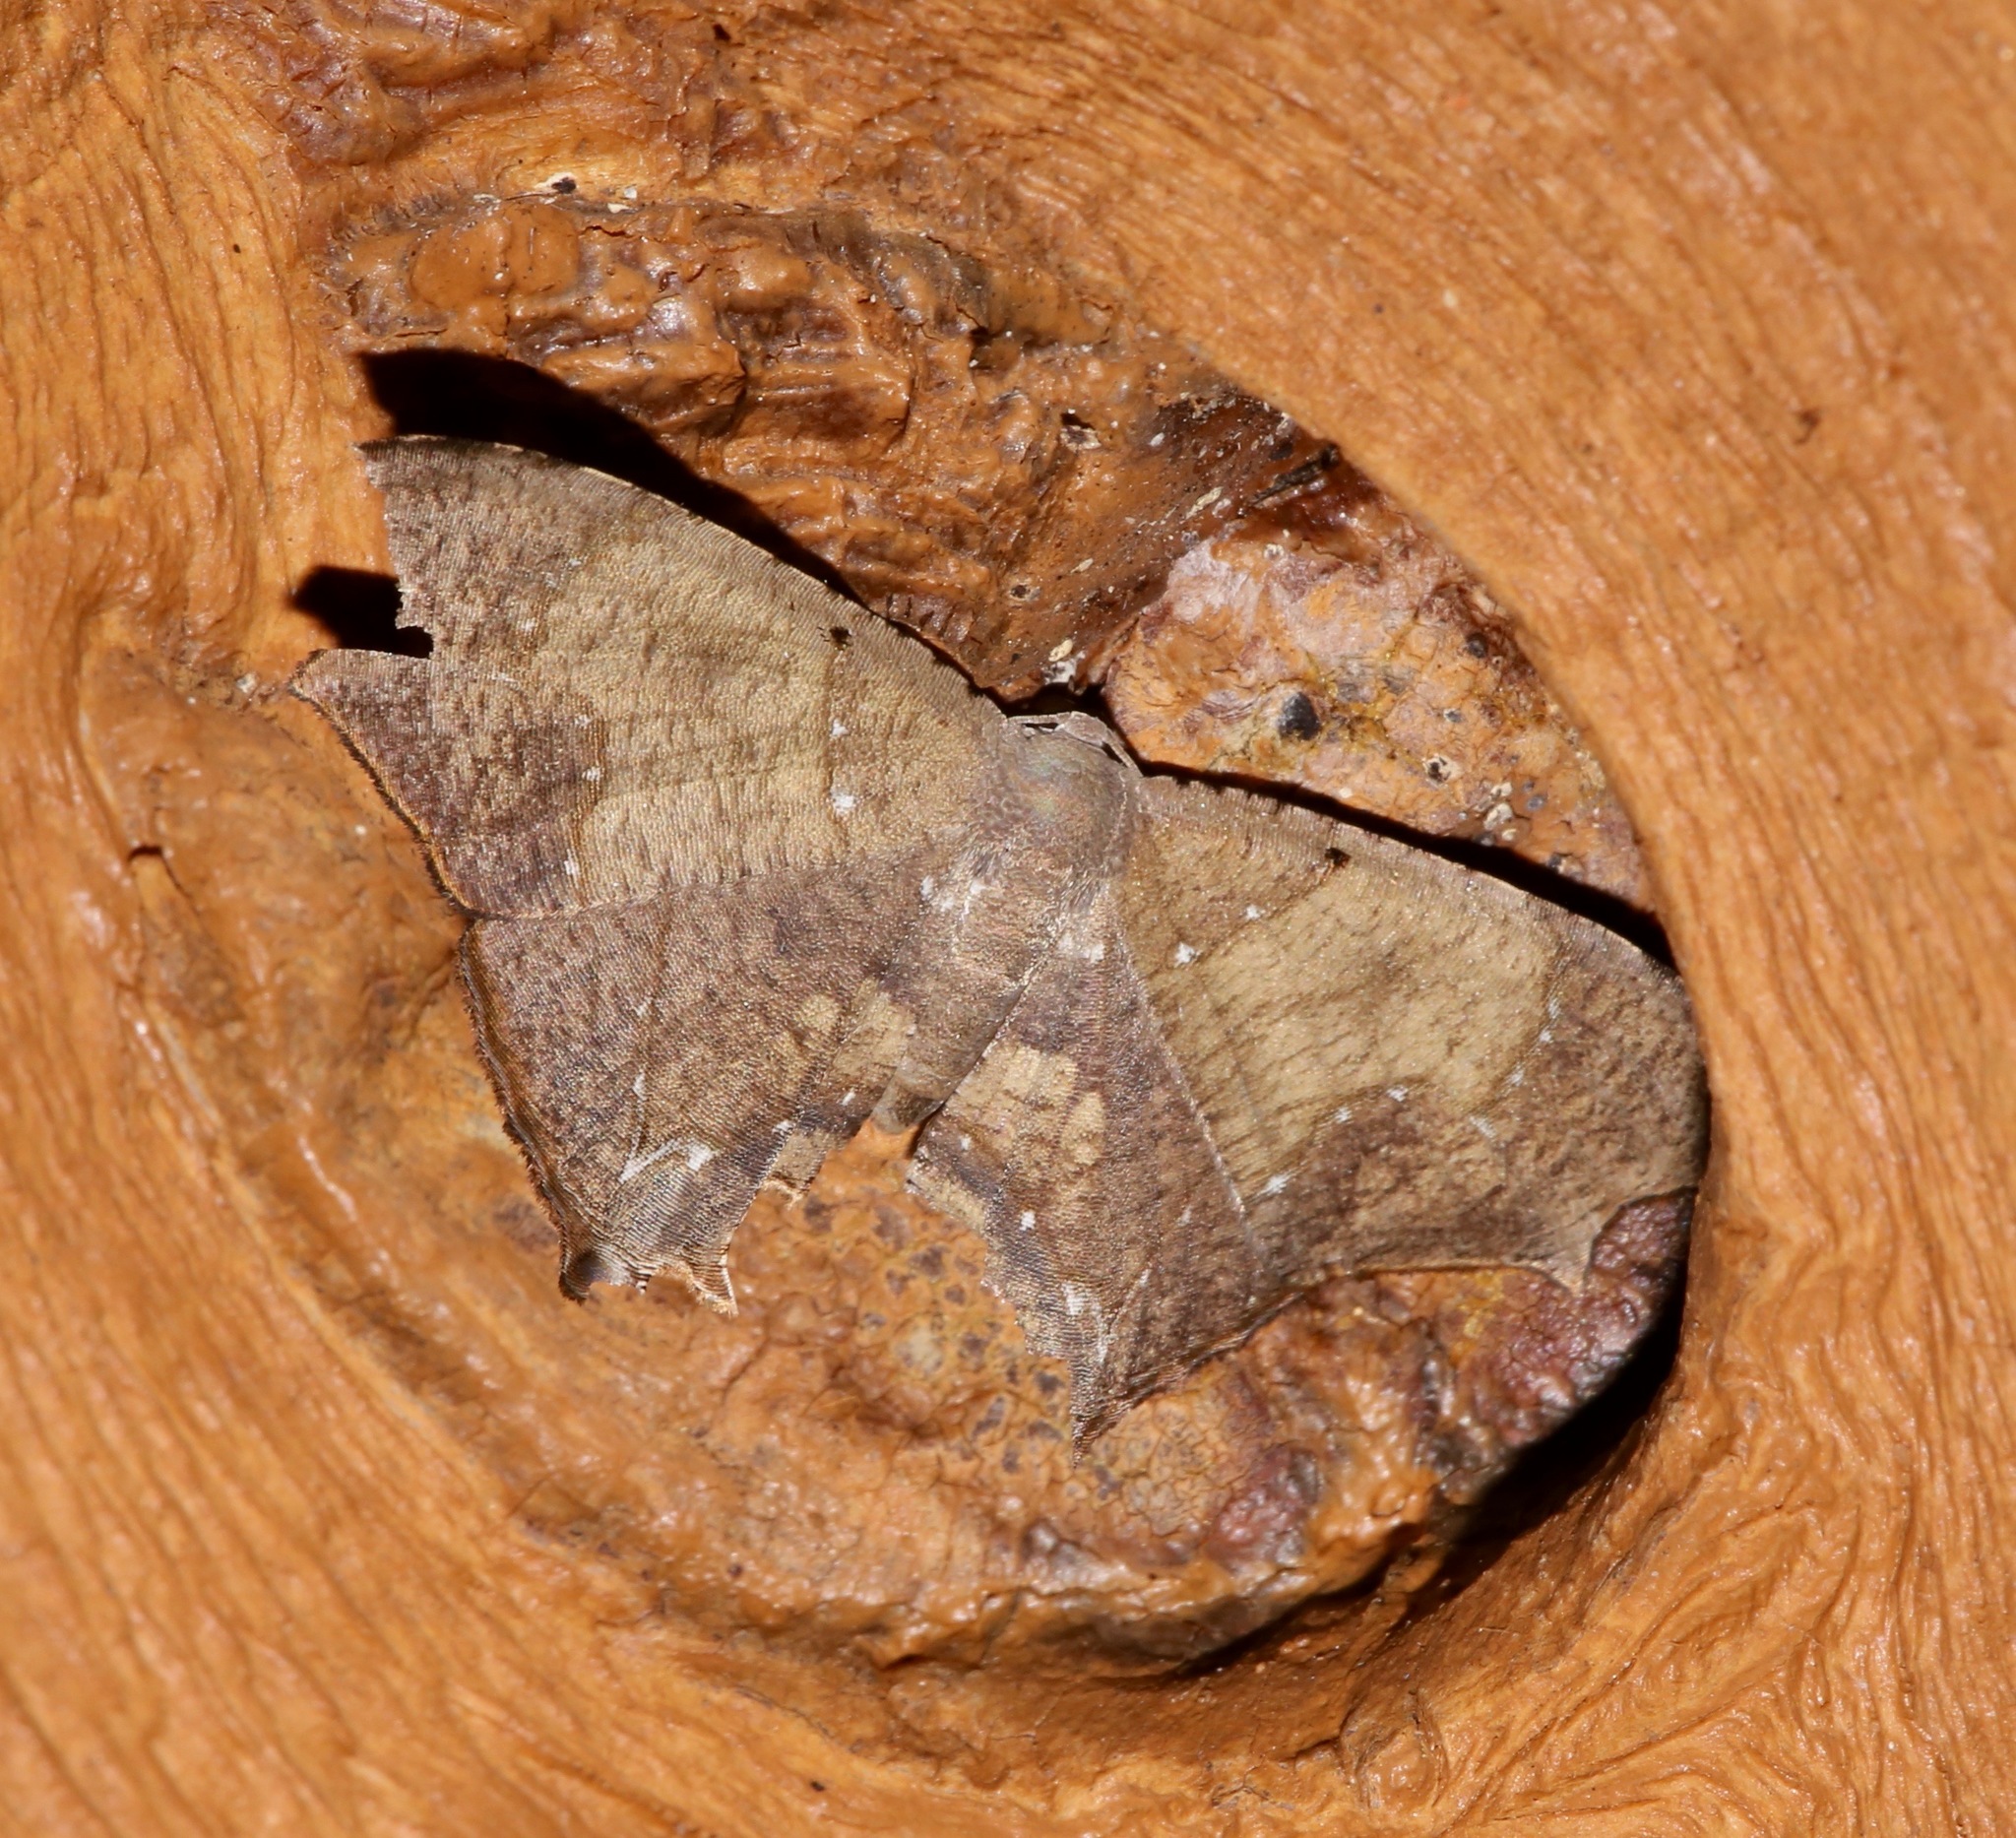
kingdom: Animalia
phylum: Arthropoda
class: Insecta
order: Lepidoptera
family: Uraniidae
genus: Trotorhombia
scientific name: Trotorhombia metachromata
